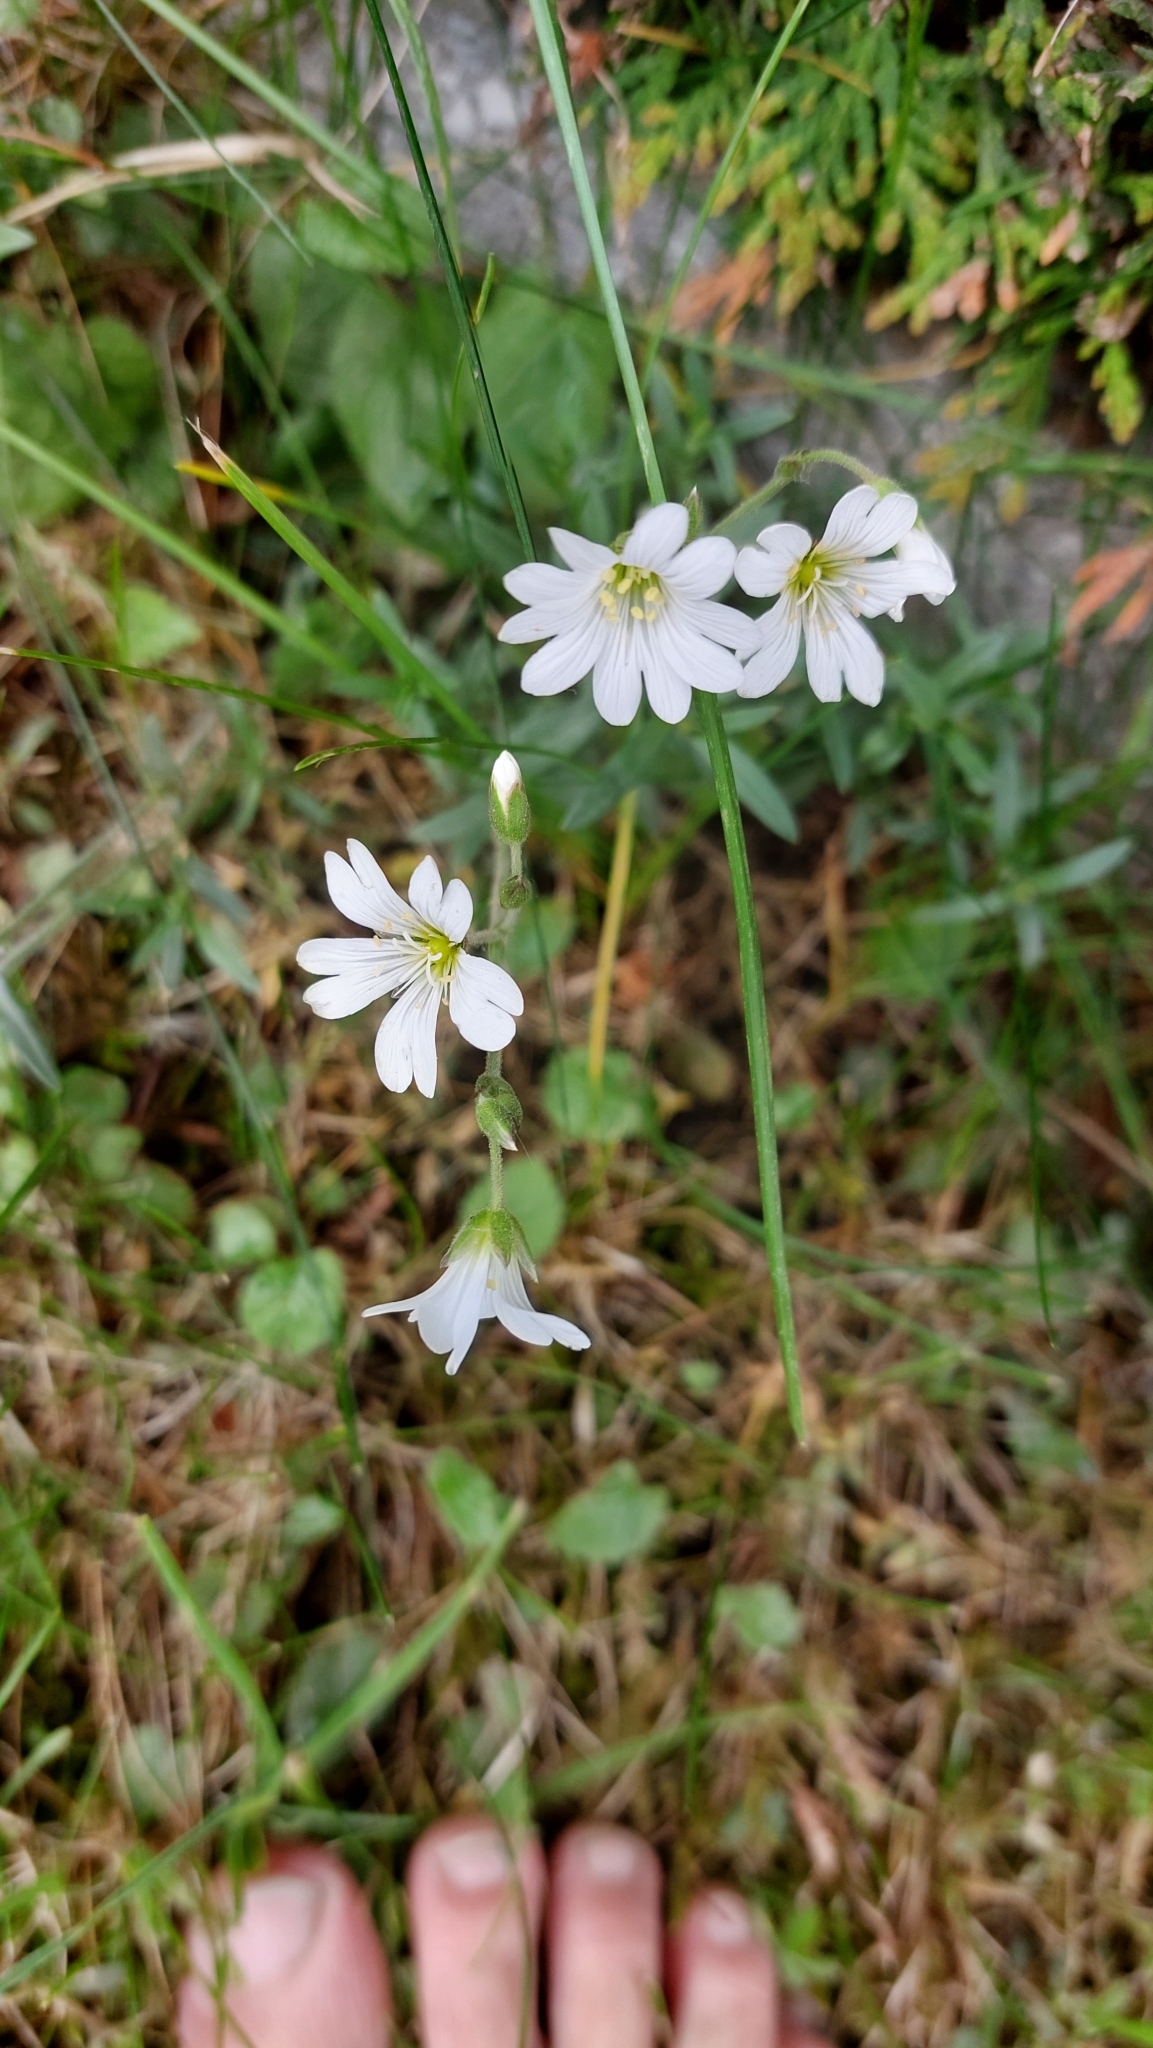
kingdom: Plantae
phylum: Tracheophyta
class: Magnoliopsida
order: Caryophyllales
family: Caryophyllaceae
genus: Cerastium
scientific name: Cerastium arvense
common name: Field mouse-ear
